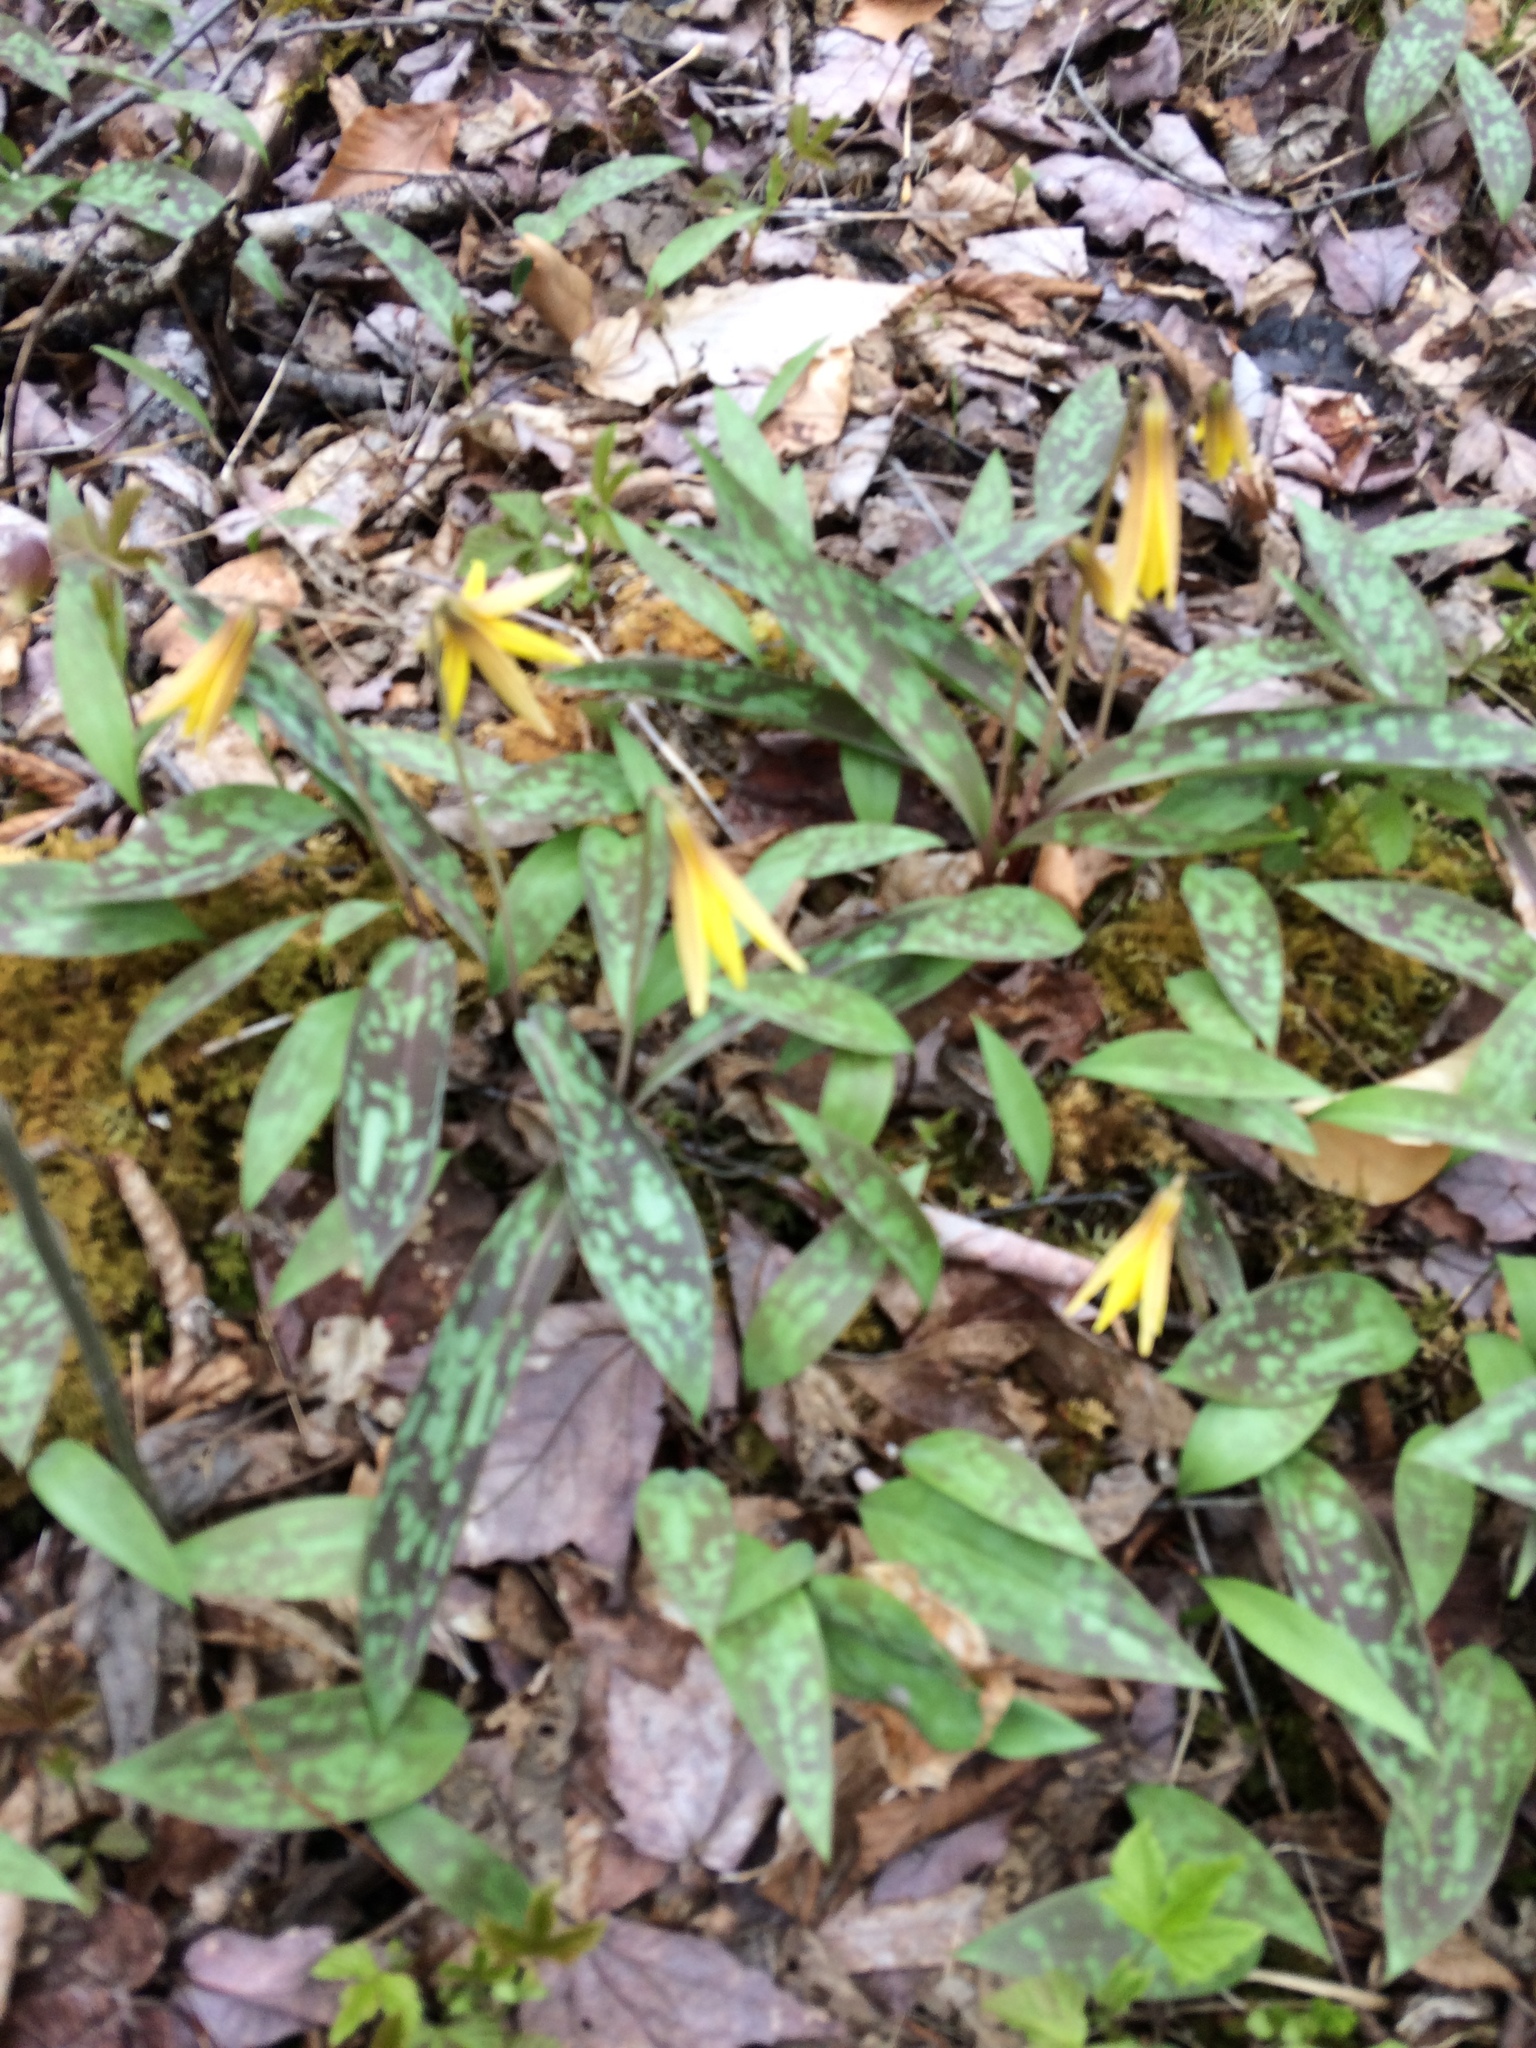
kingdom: Plantae
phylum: Tracheophyta
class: Liliopsida
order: Liliales
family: Liliaceae
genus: Erythronium
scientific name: Erythronium americanum
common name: Yellow adder's-tongue
